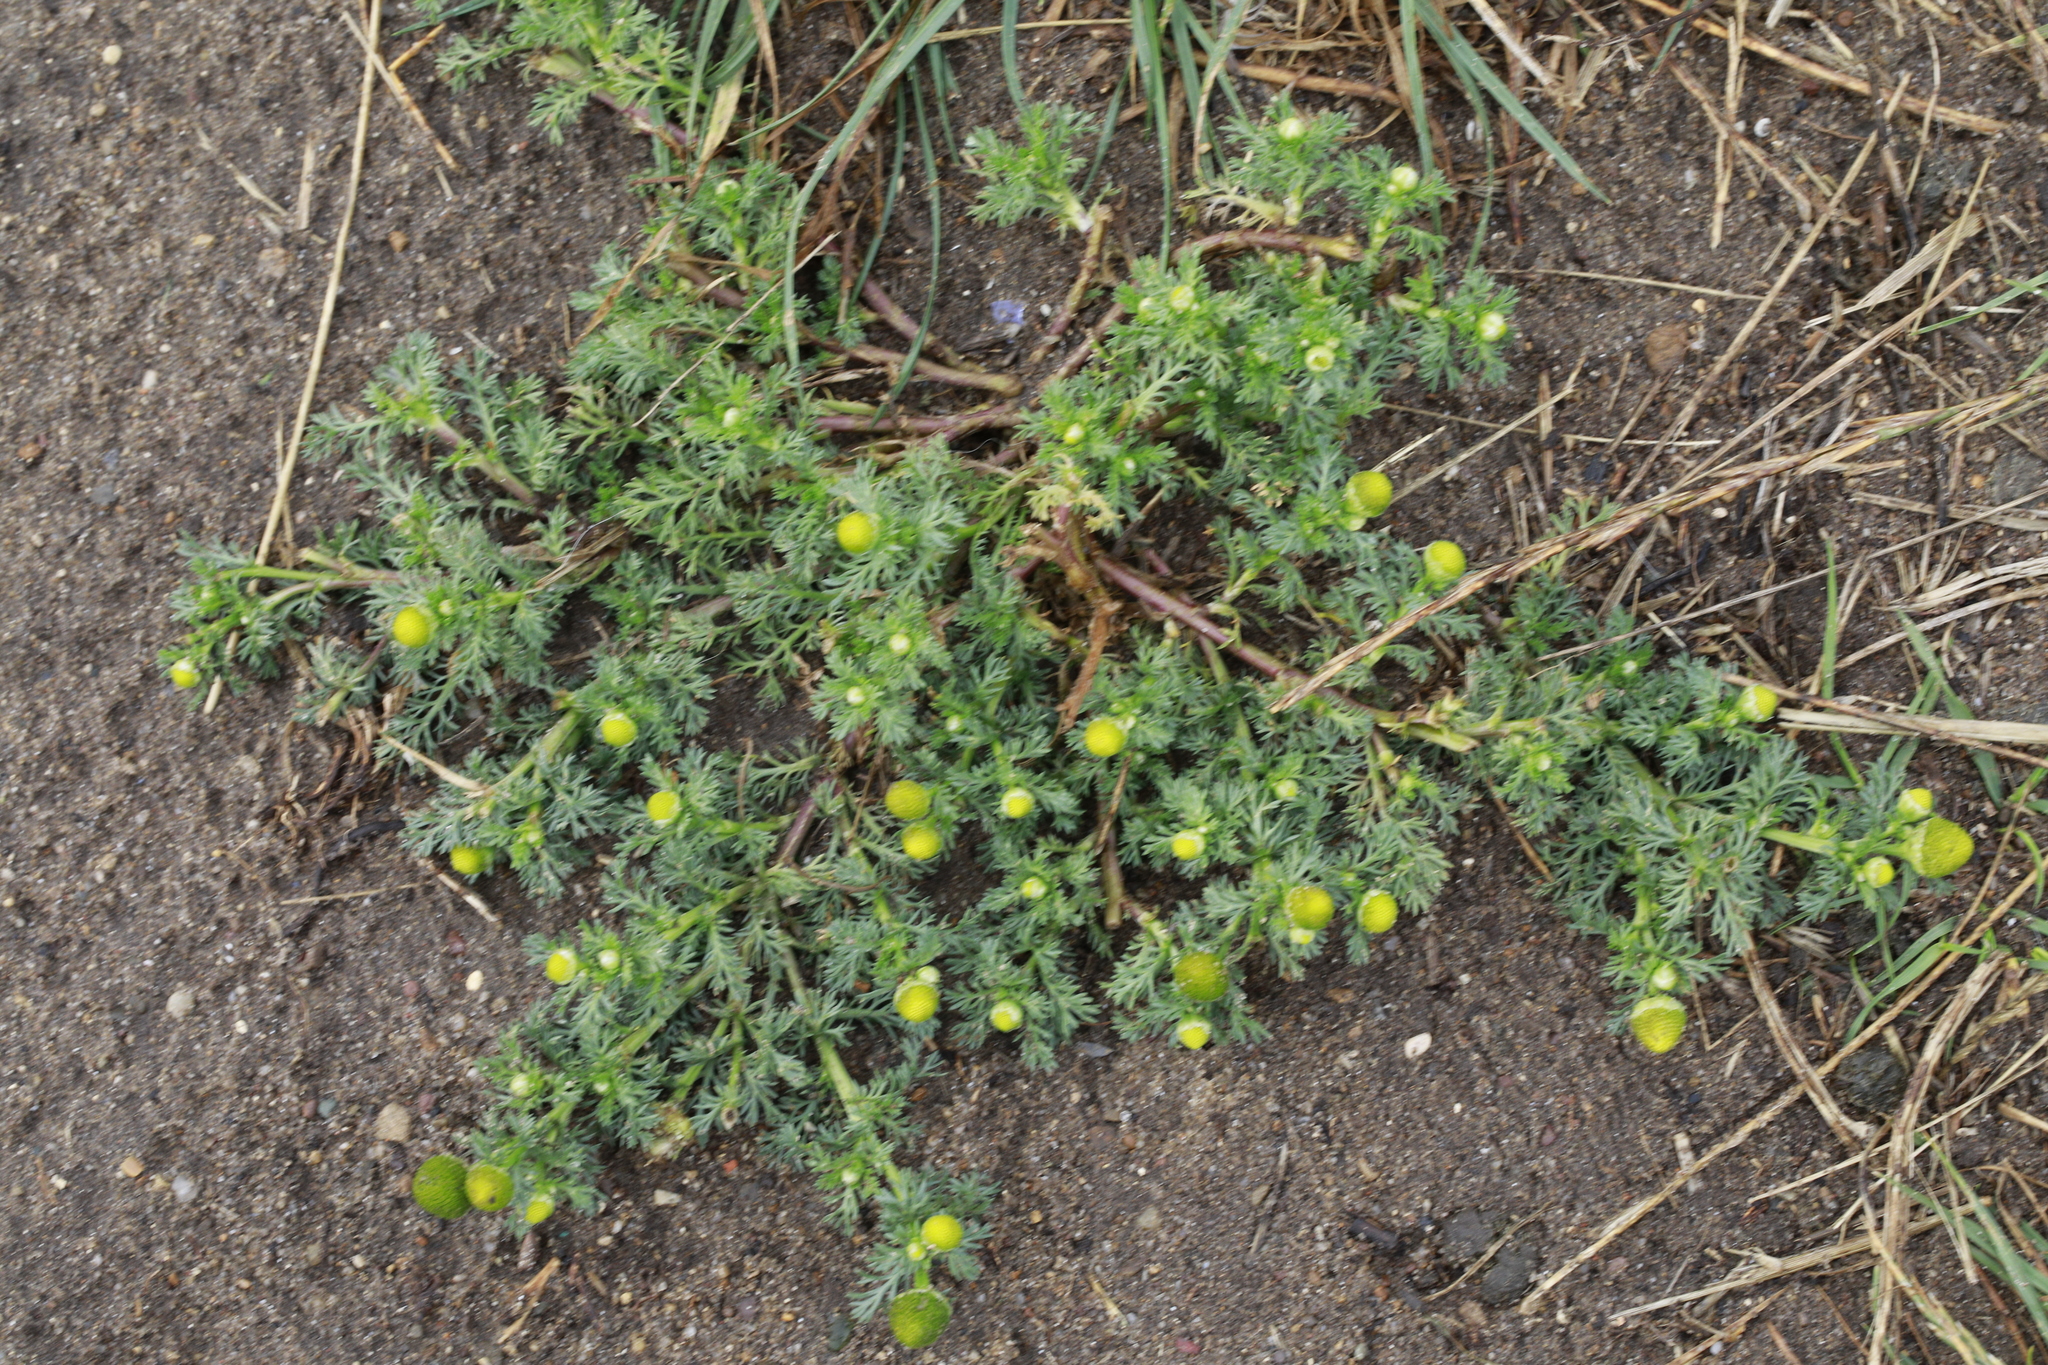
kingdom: Plantae
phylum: Tracheophyta
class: Magnoliopsida
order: Asterales
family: Asteraceae
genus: Matricaria
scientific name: Matricaria discoidea
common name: Disc mayweed
